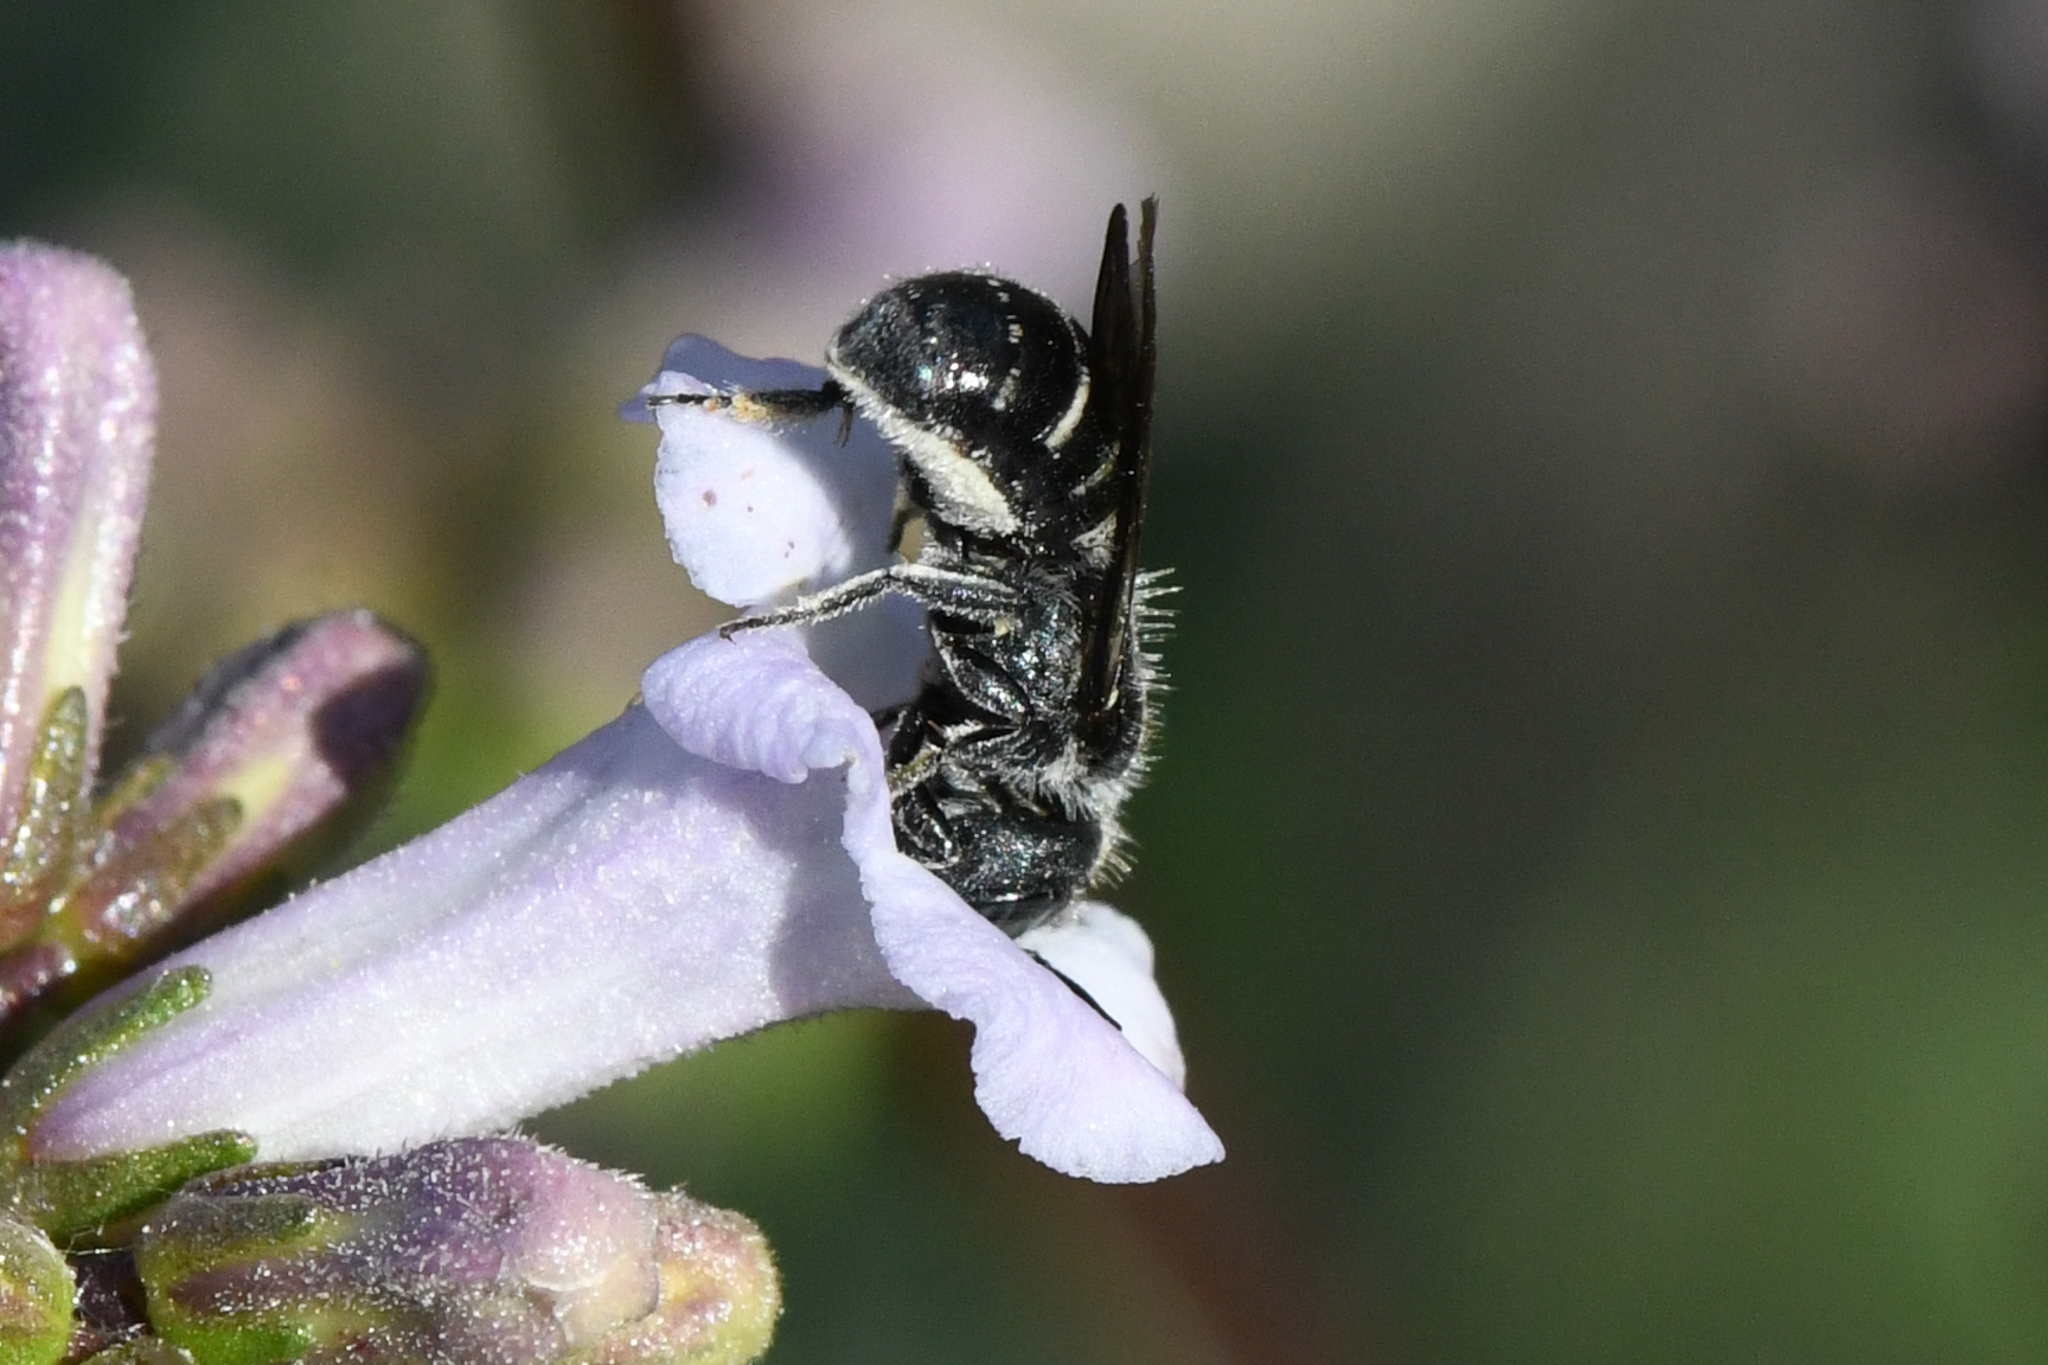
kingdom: Animalia
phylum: Arthropoda
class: Insecta
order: Hymenoptera
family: Megachilidae
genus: Protosmia
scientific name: Protosmia rubifloris
